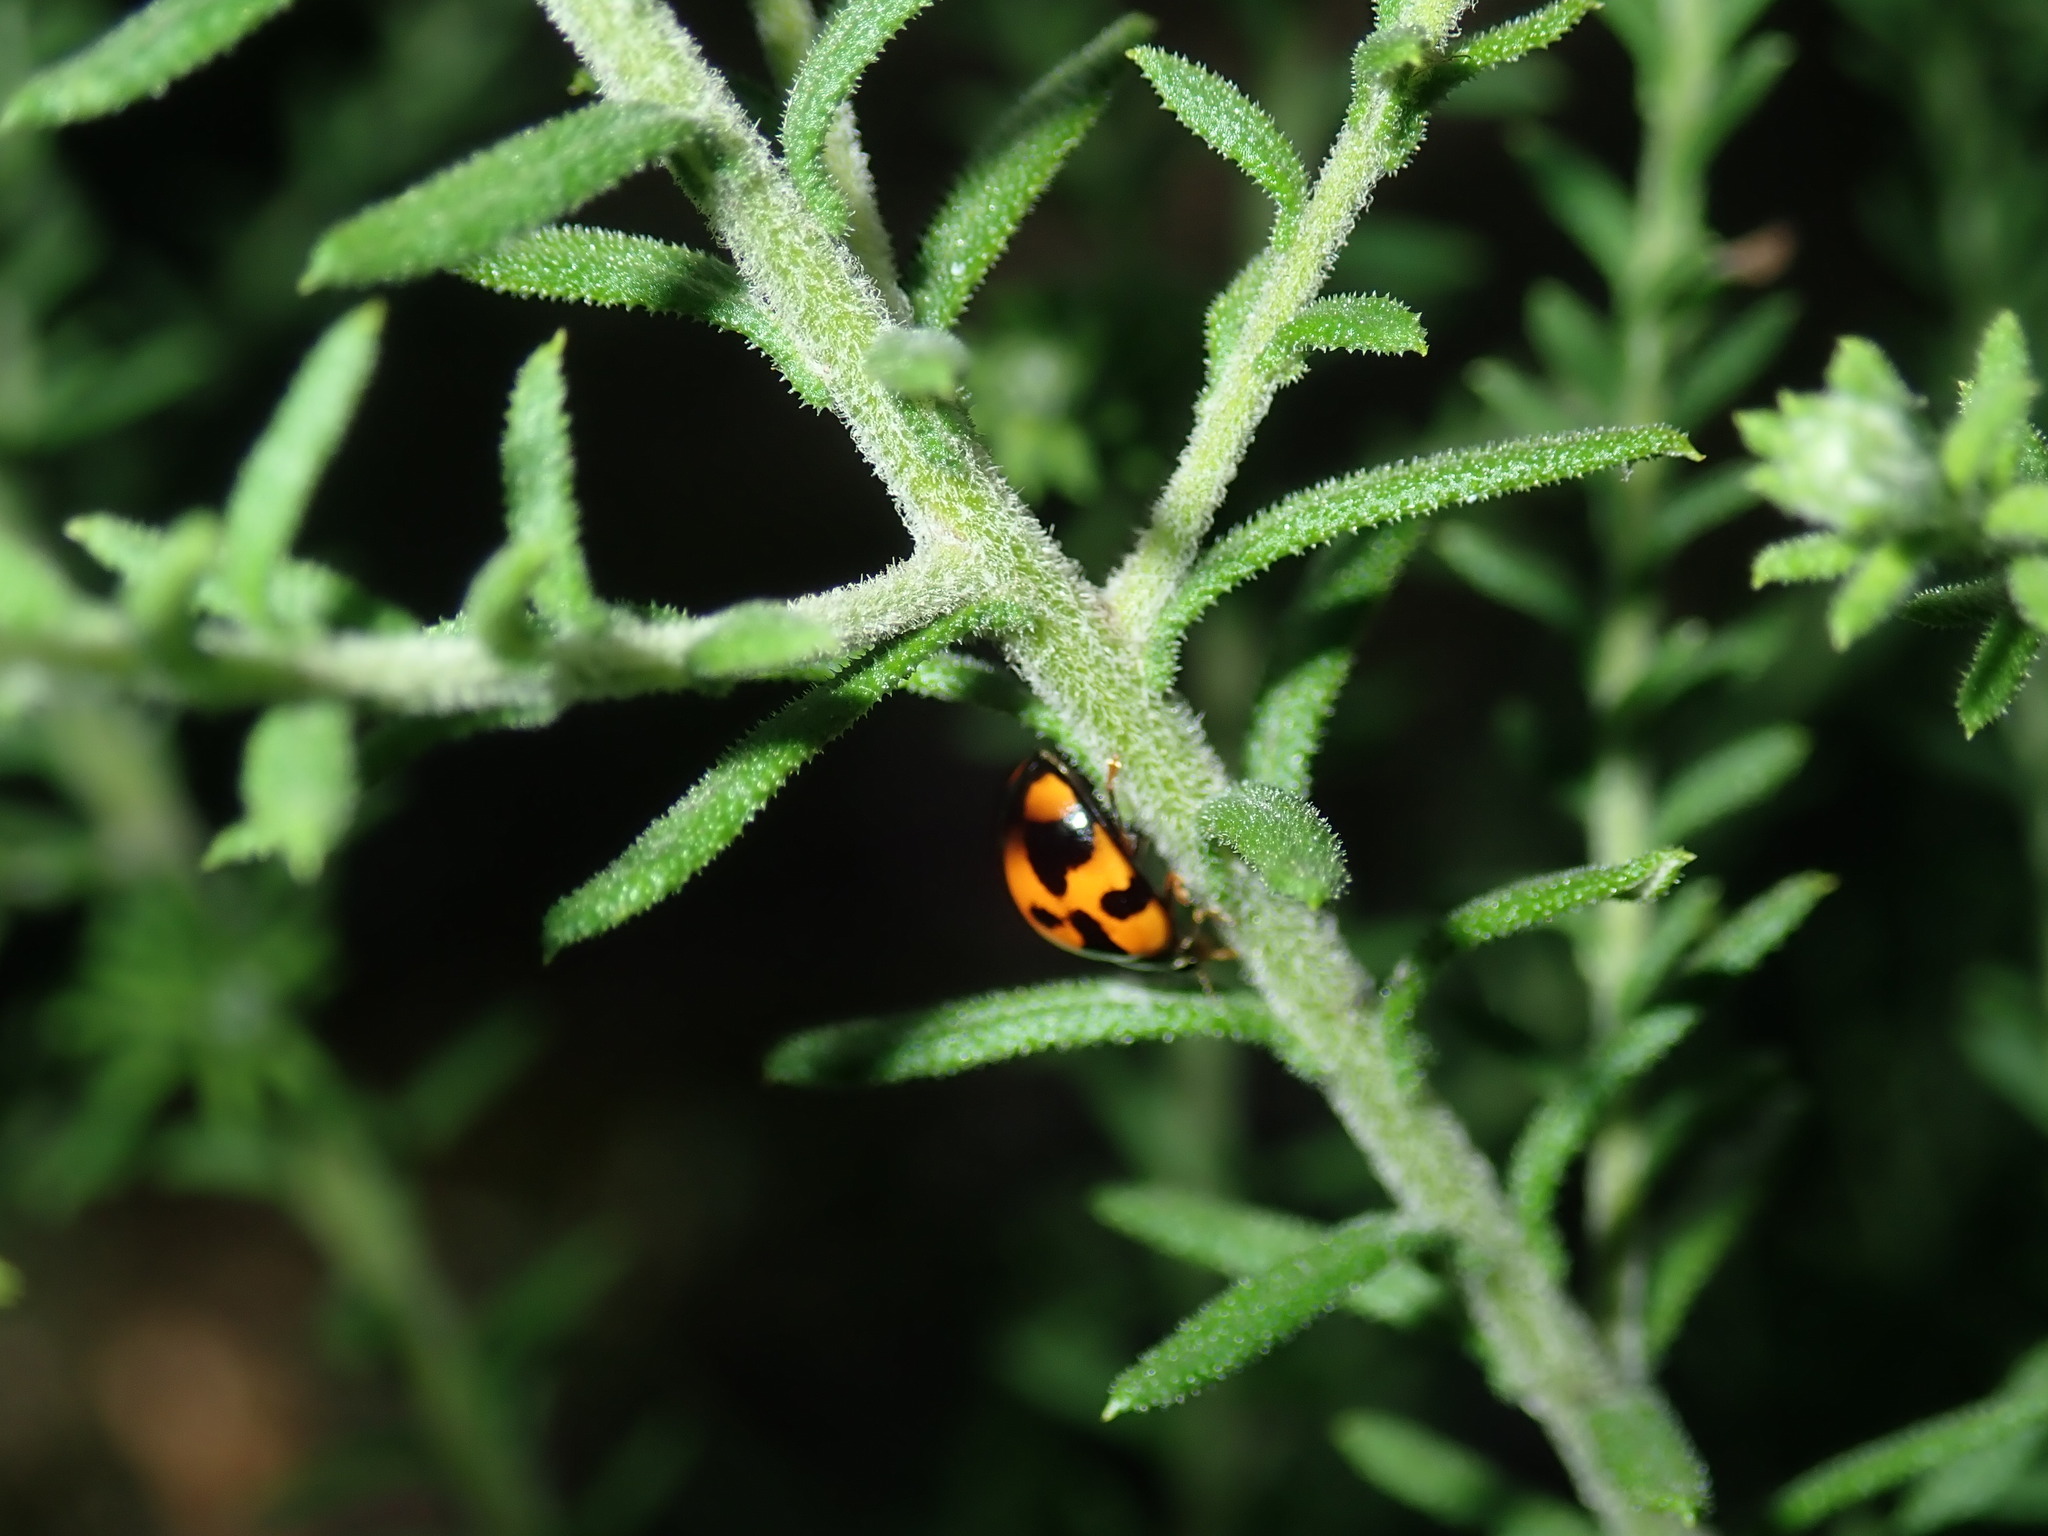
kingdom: Animalia
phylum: Arthropoda
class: Insecta
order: Coleoptera
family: Coccinellidae
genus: Coelophora
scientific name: Coelophora inaequalis
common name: Common australian lady beetle
